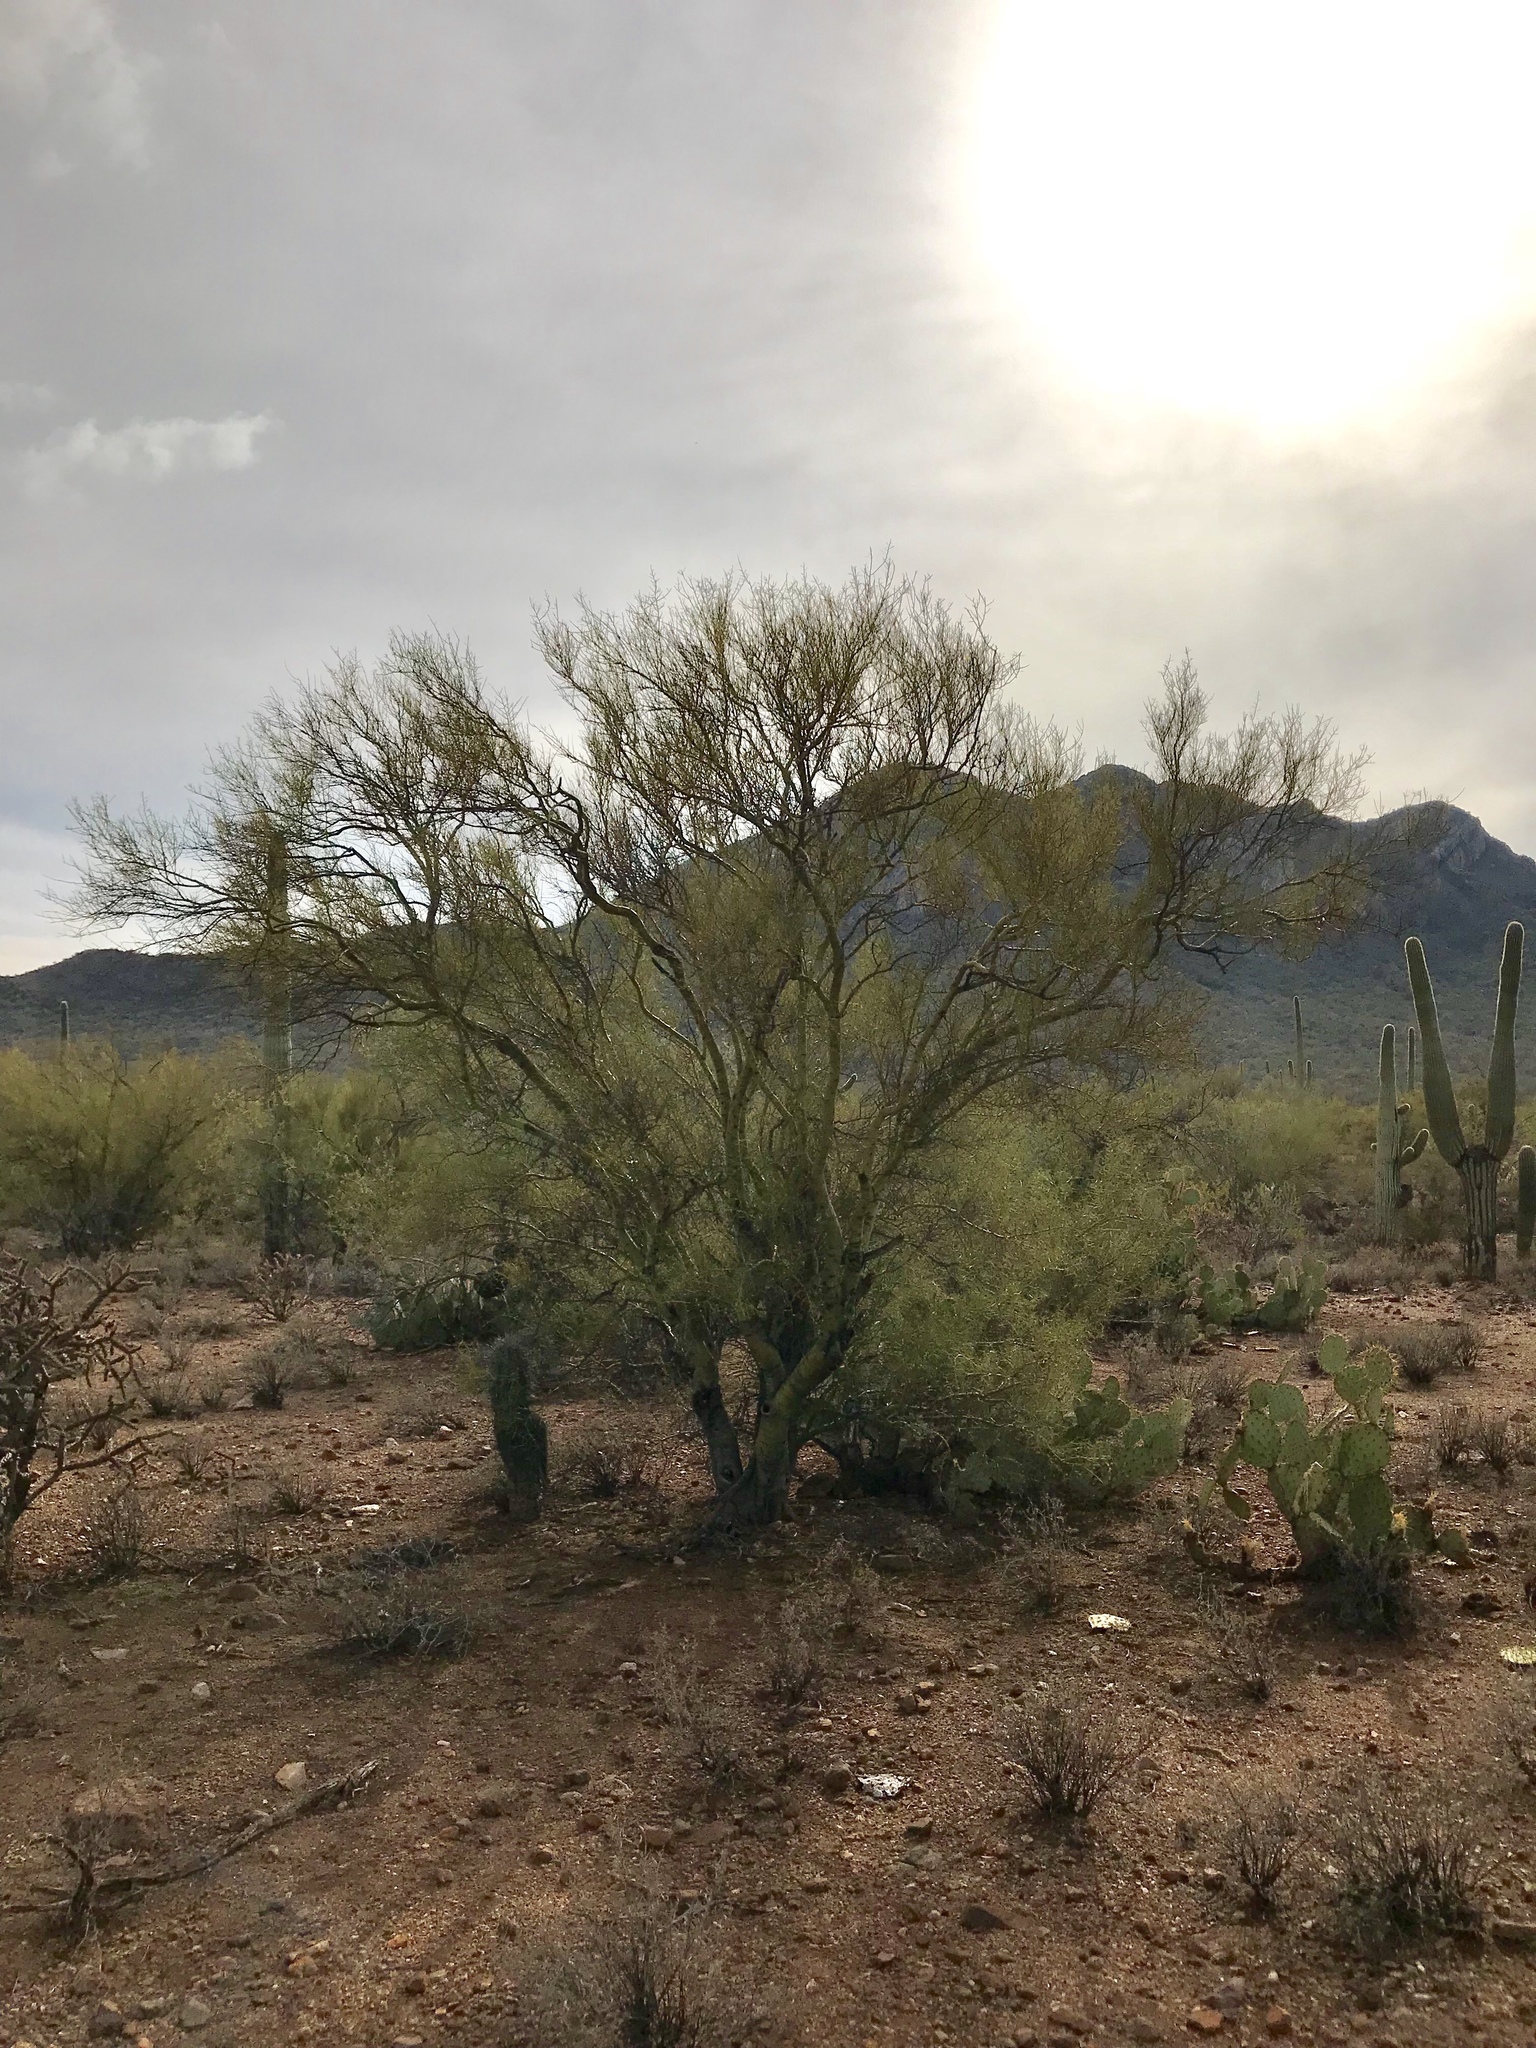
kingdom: Plantae
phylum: Tracheophyta
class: Magnoliopsida
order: Fabales
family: Fabaceae
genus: Parkinsonia
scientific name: Parkinsonia microphylla
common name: Yellow paloverde
